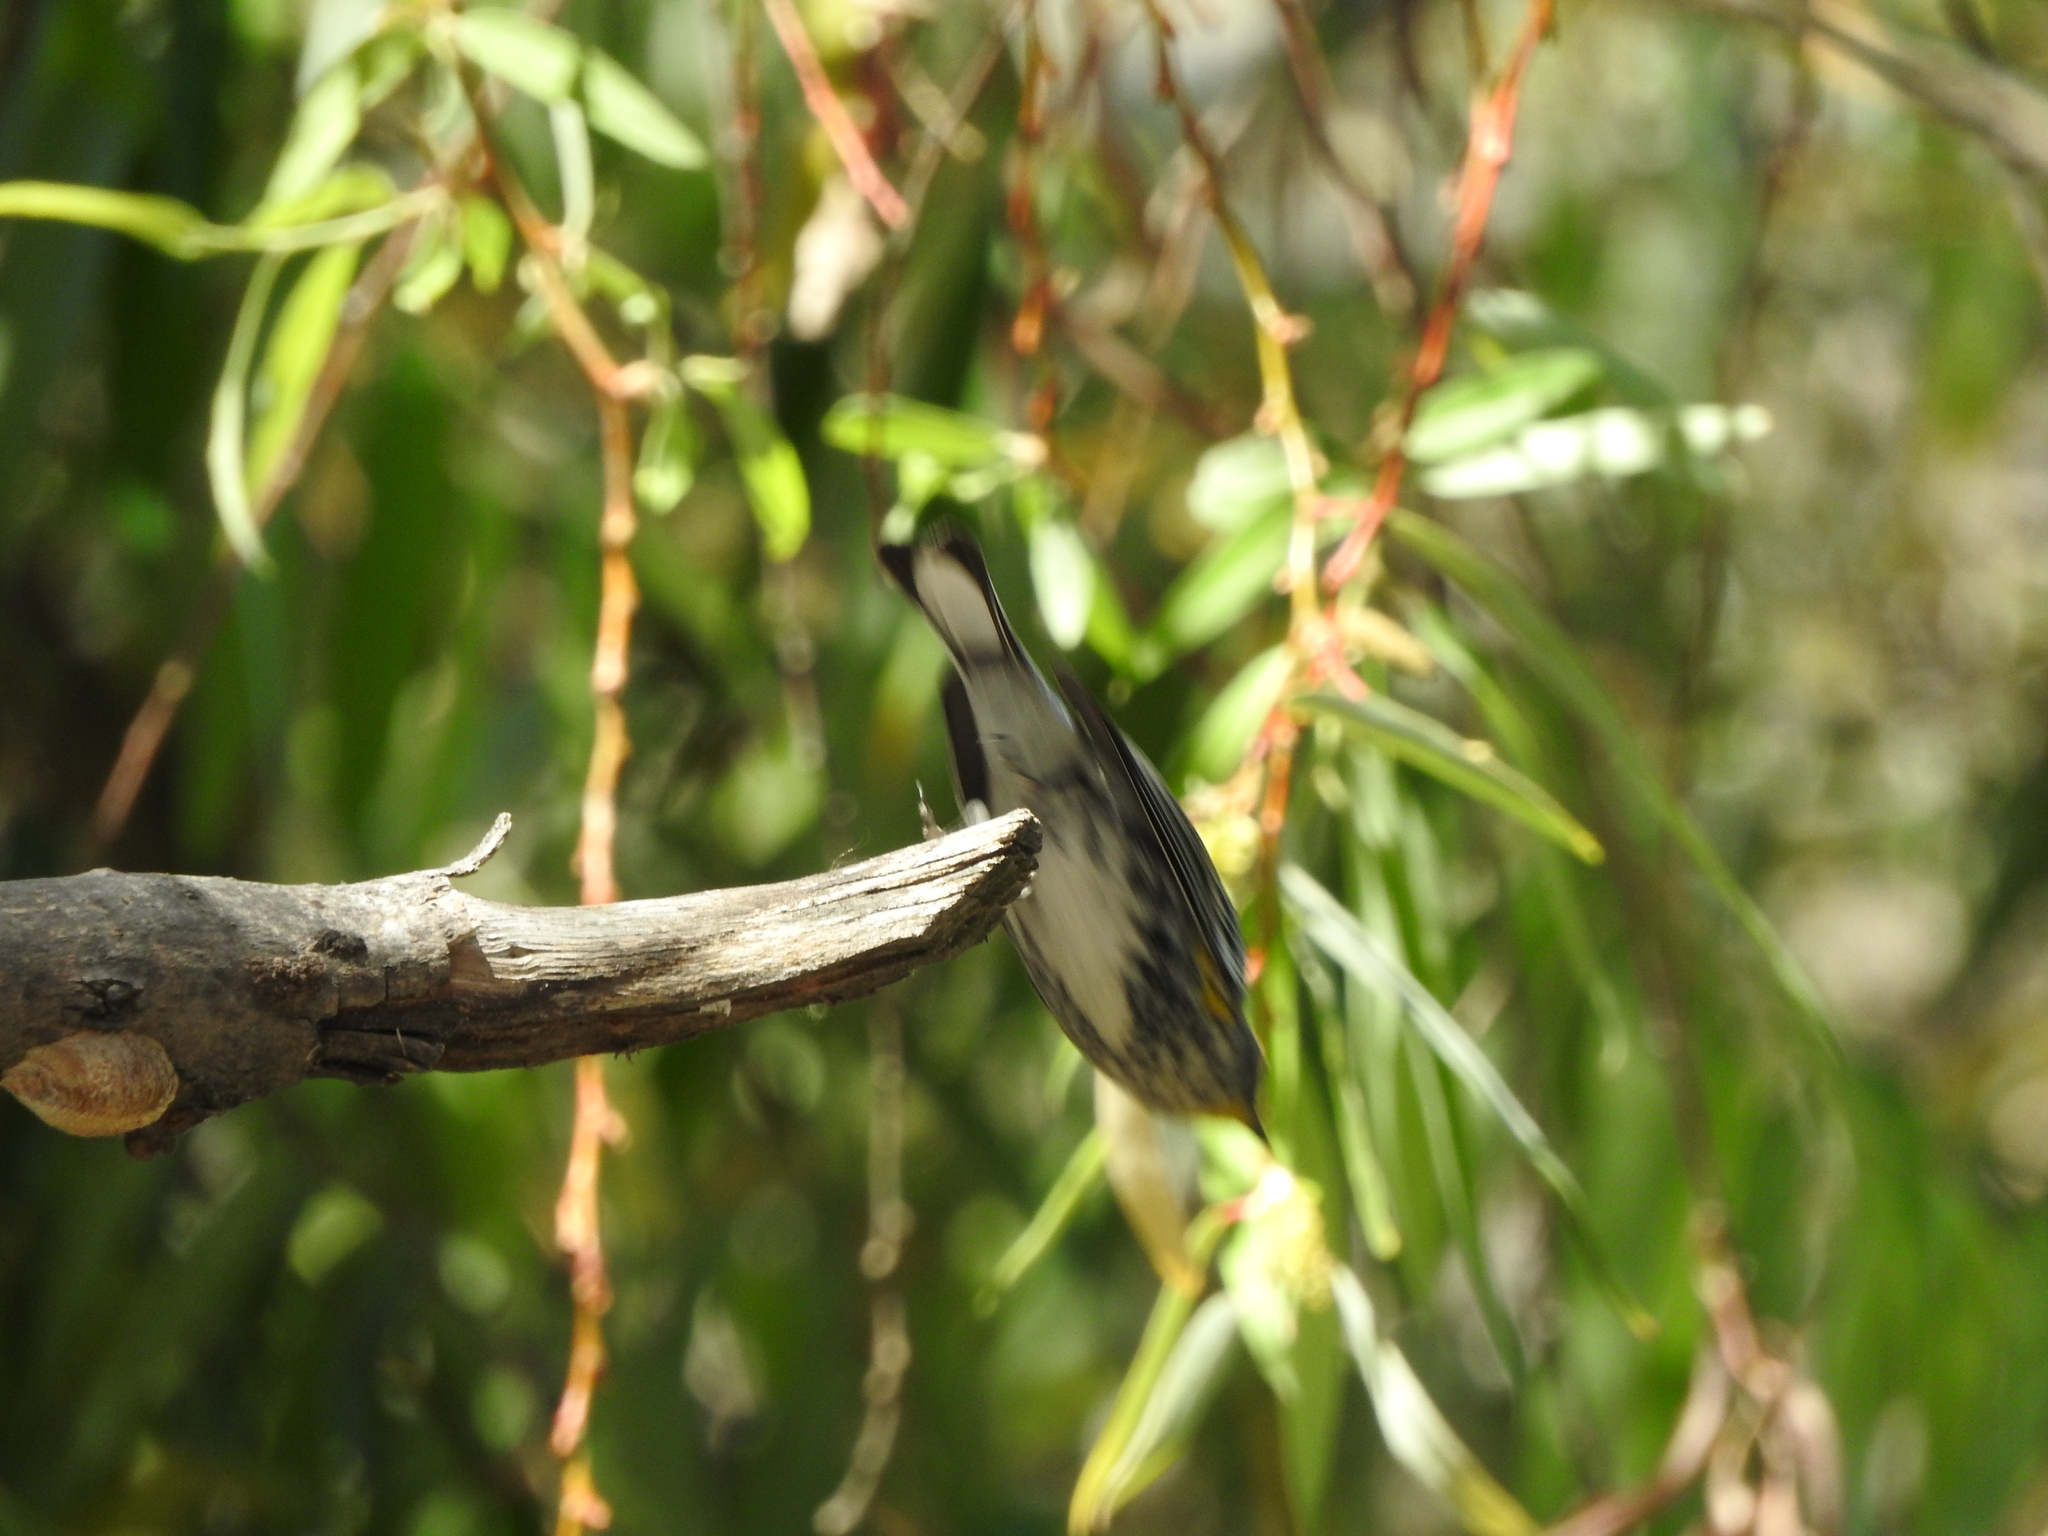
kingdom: Animalia
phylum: Chordata
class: Aves
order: Passeriformes
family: Parulidae
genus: Setophaga
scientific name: Setophaga coronata
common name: Myrtle warbler
